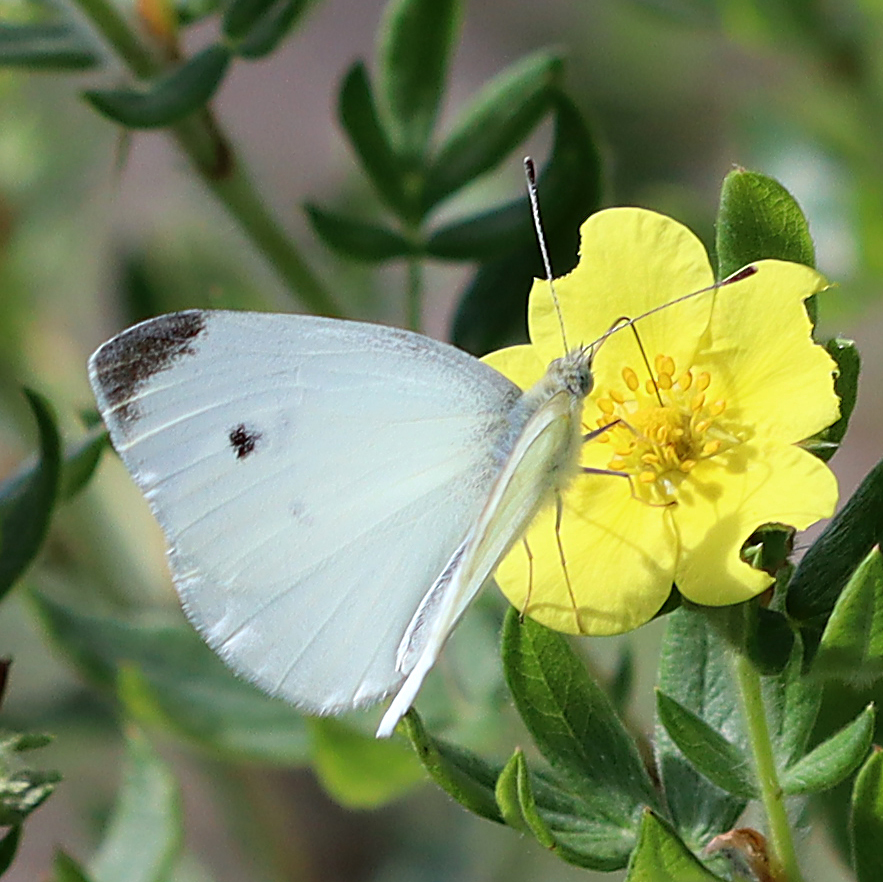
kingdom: Animalia
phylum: Arthropoda
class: Insecta
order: Lepidoptera
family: Pieridae
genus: Pieris
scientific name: Pieris rapae
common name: Small white
